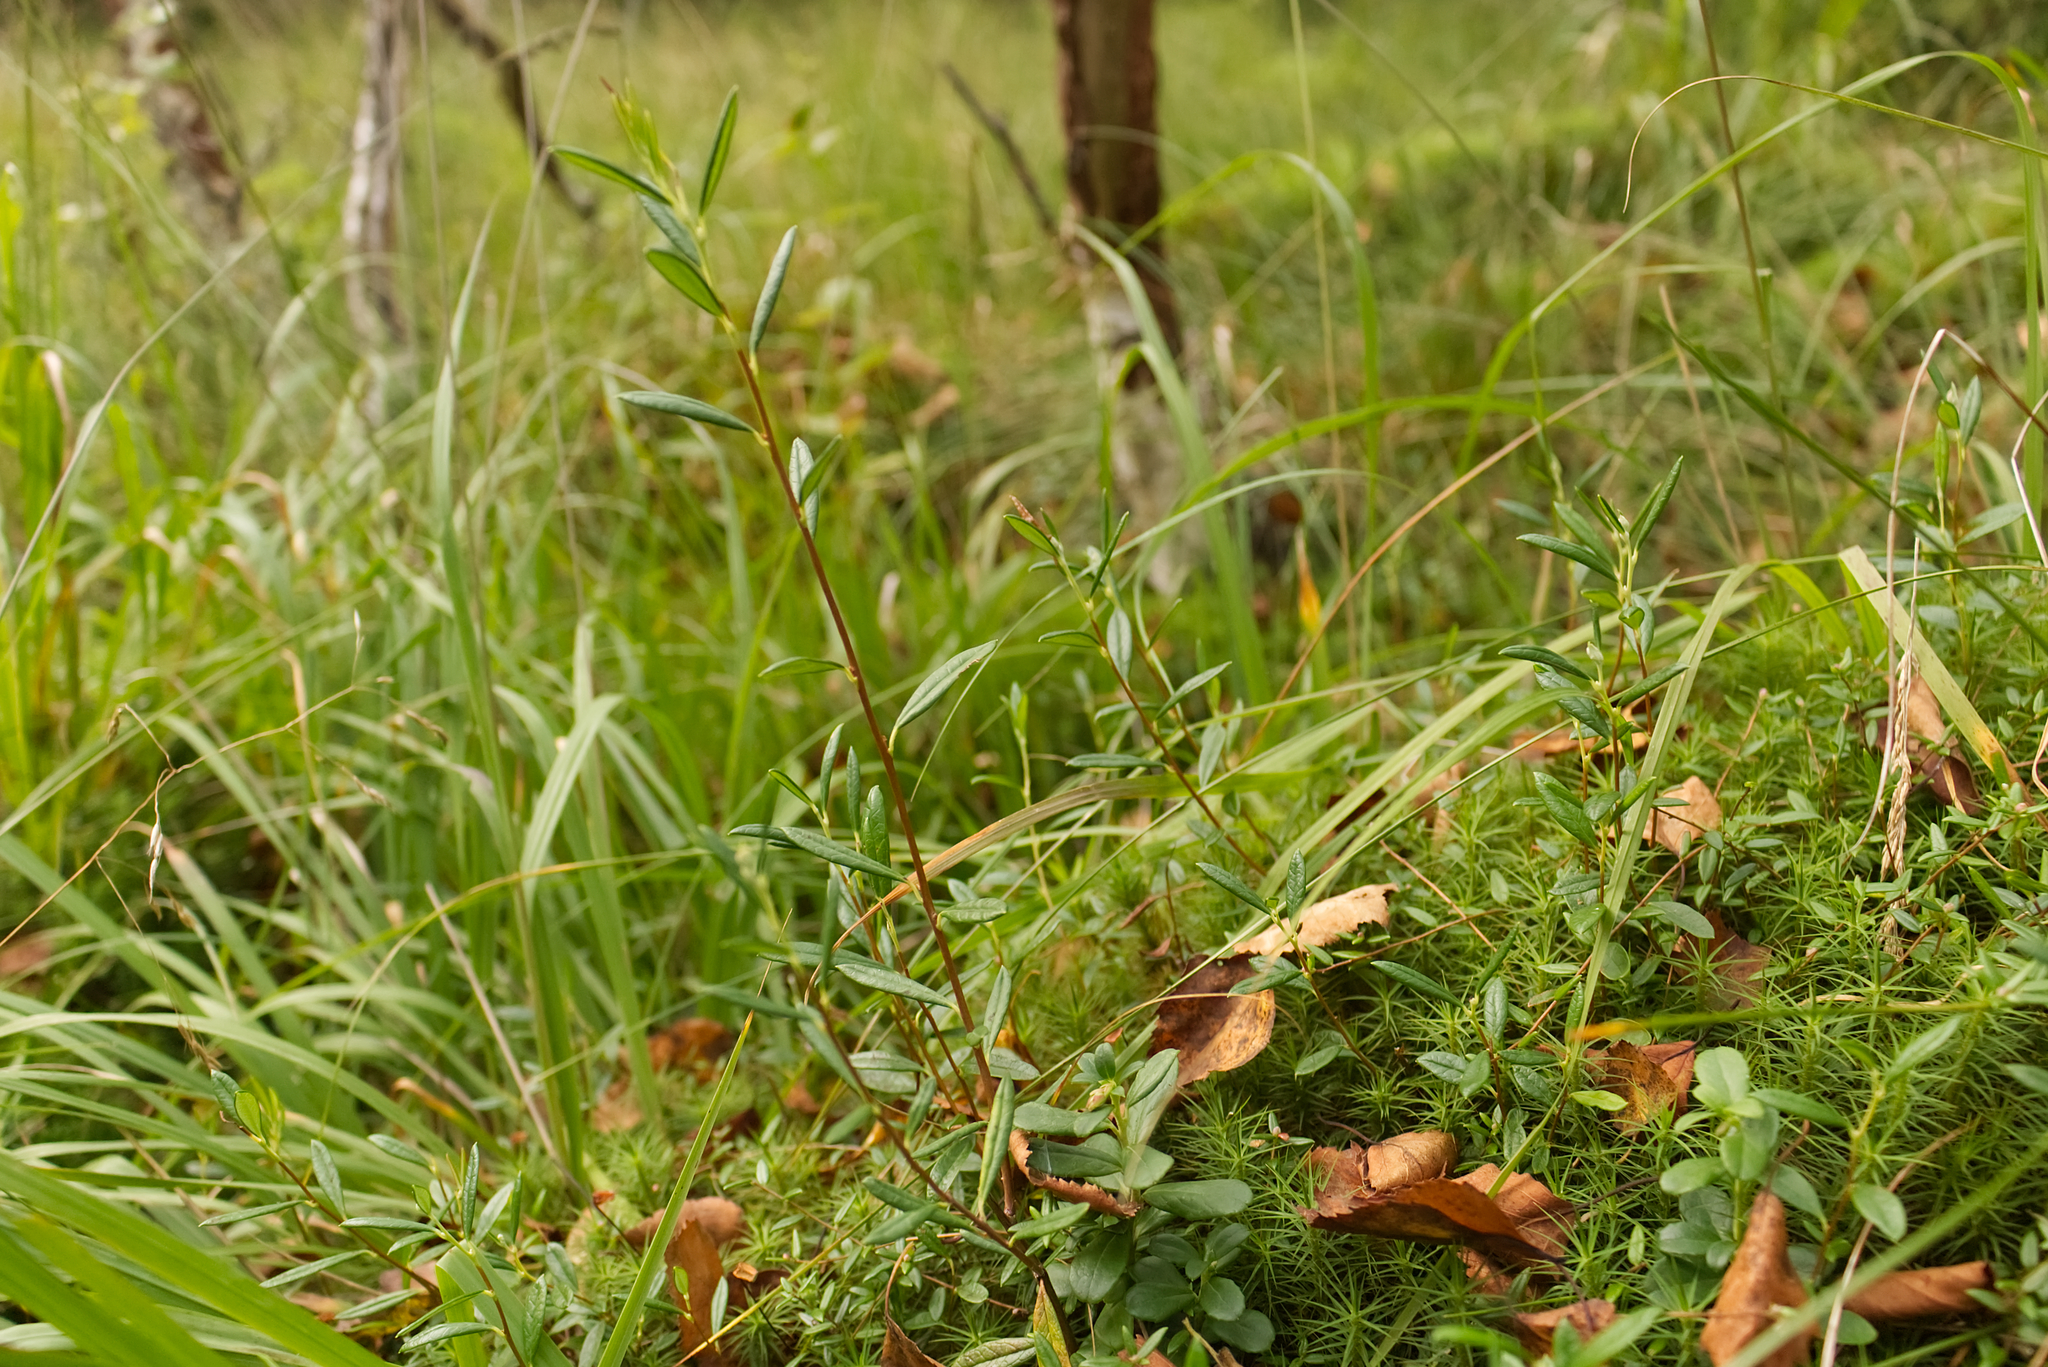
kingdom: Plantae
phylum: Tracheophyta
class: Magnoliopsida
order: Ericales
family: Ericaceae
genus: Andromeda
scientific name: Andromeda polifolia
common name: Bog-rosemary
